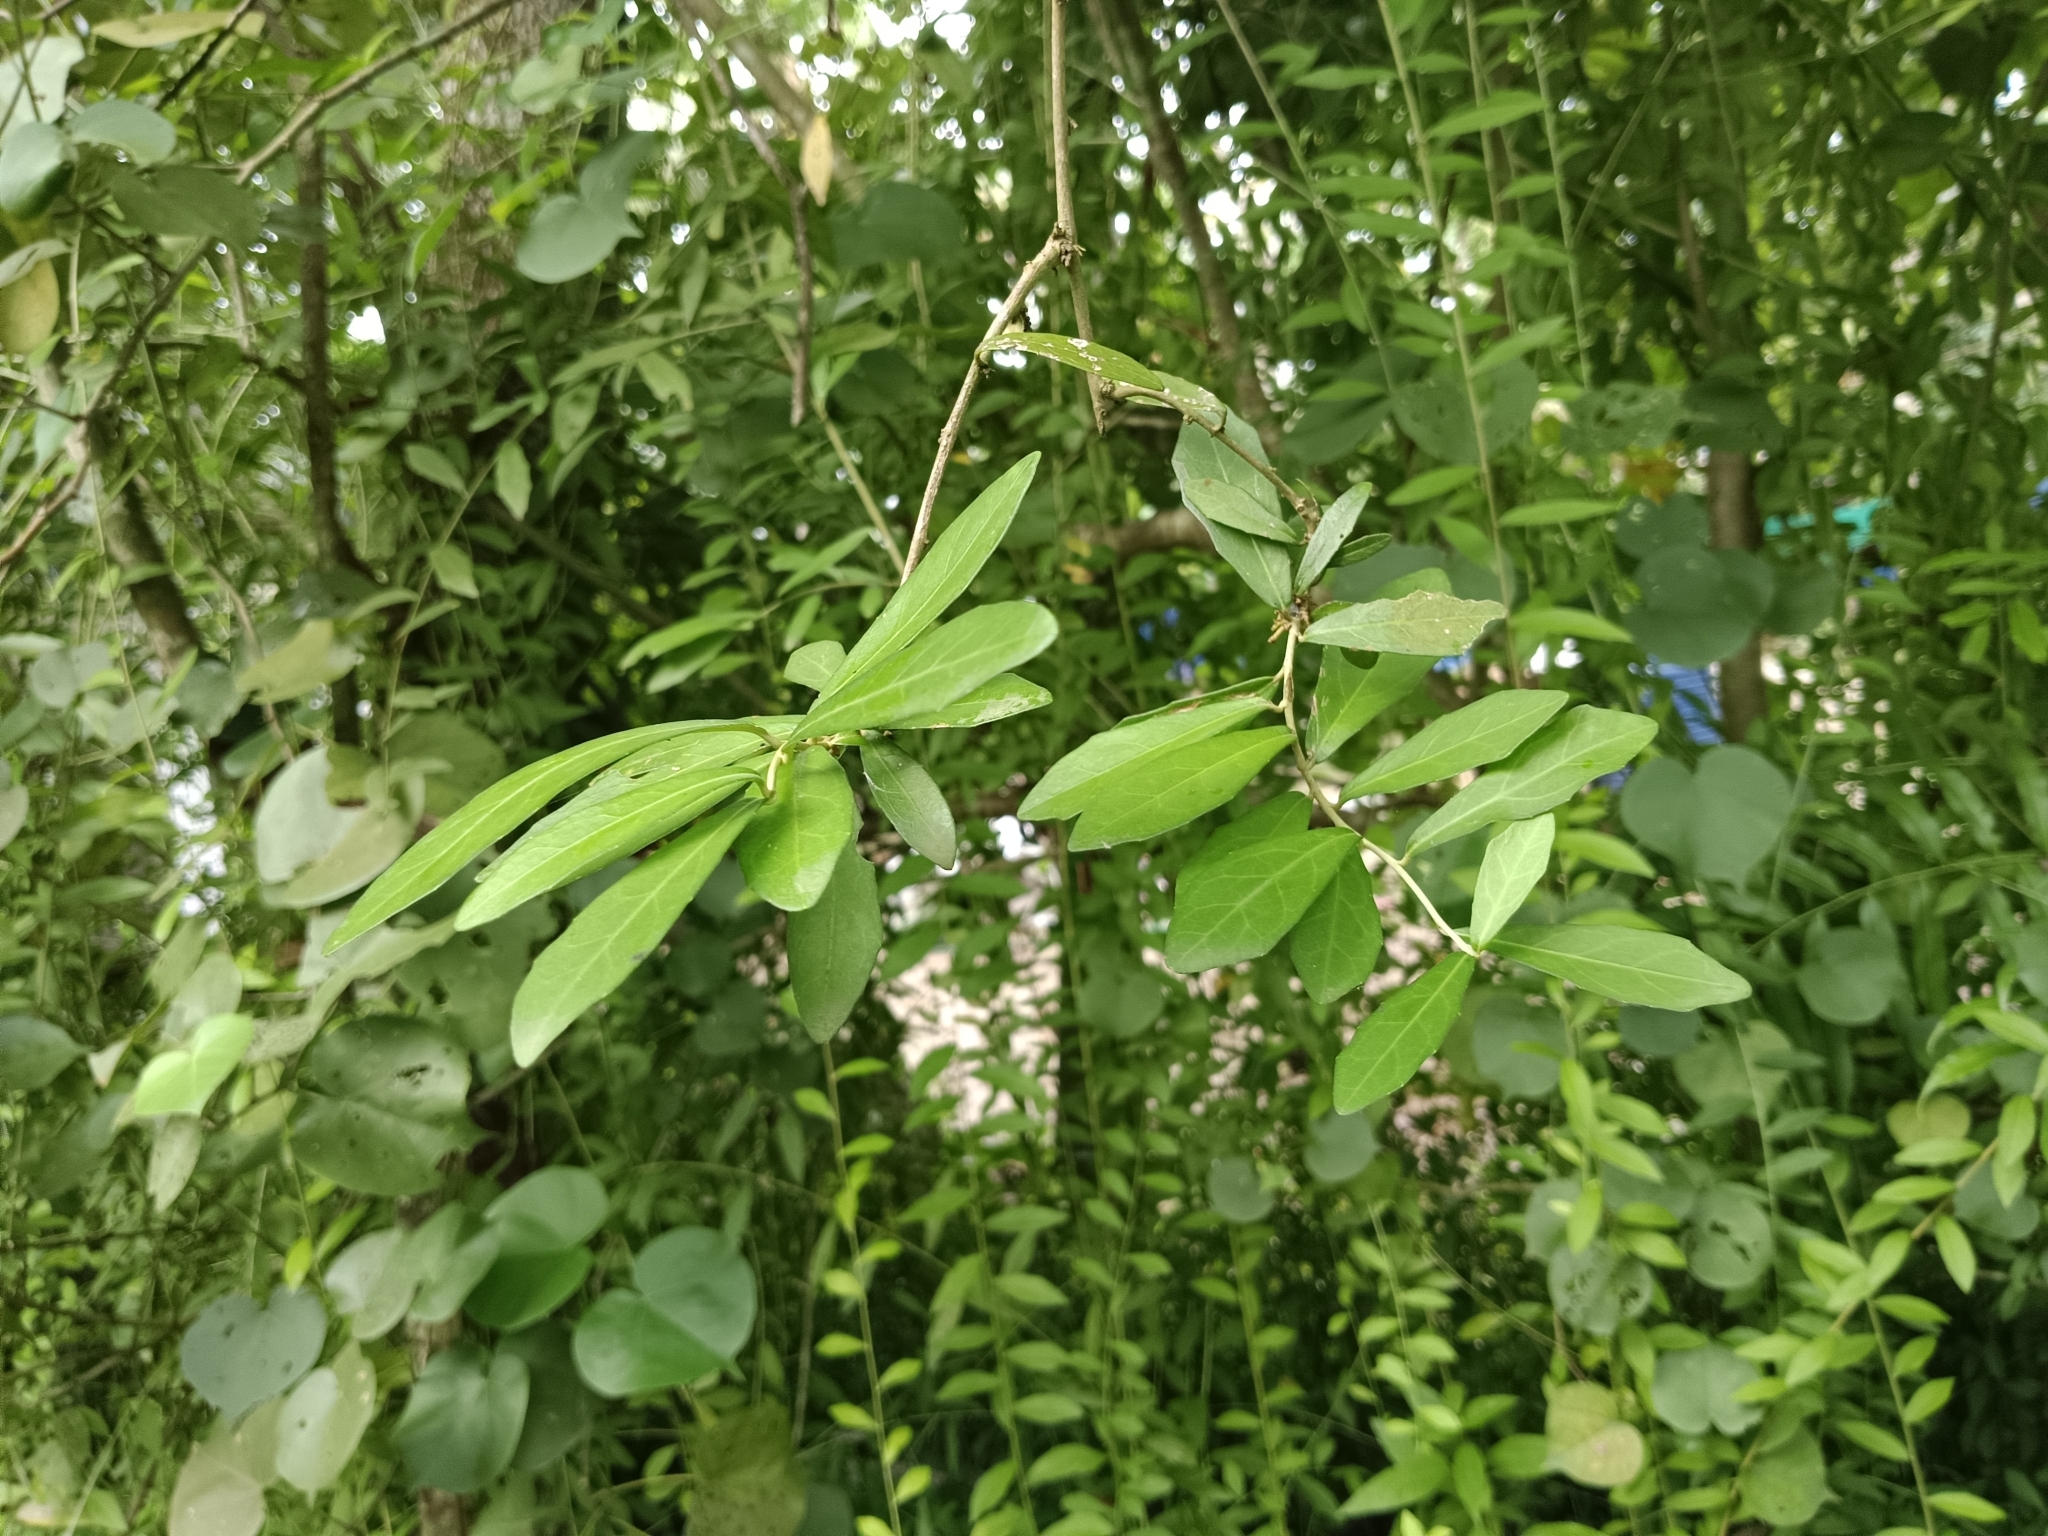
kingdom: Plantae
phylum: Tracheophyta
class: Magnoliopsida
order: Asterales
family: Asteraceae
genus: Tarlmounia
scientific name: Tarlmounia elliptica
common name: Kheua sa lot
